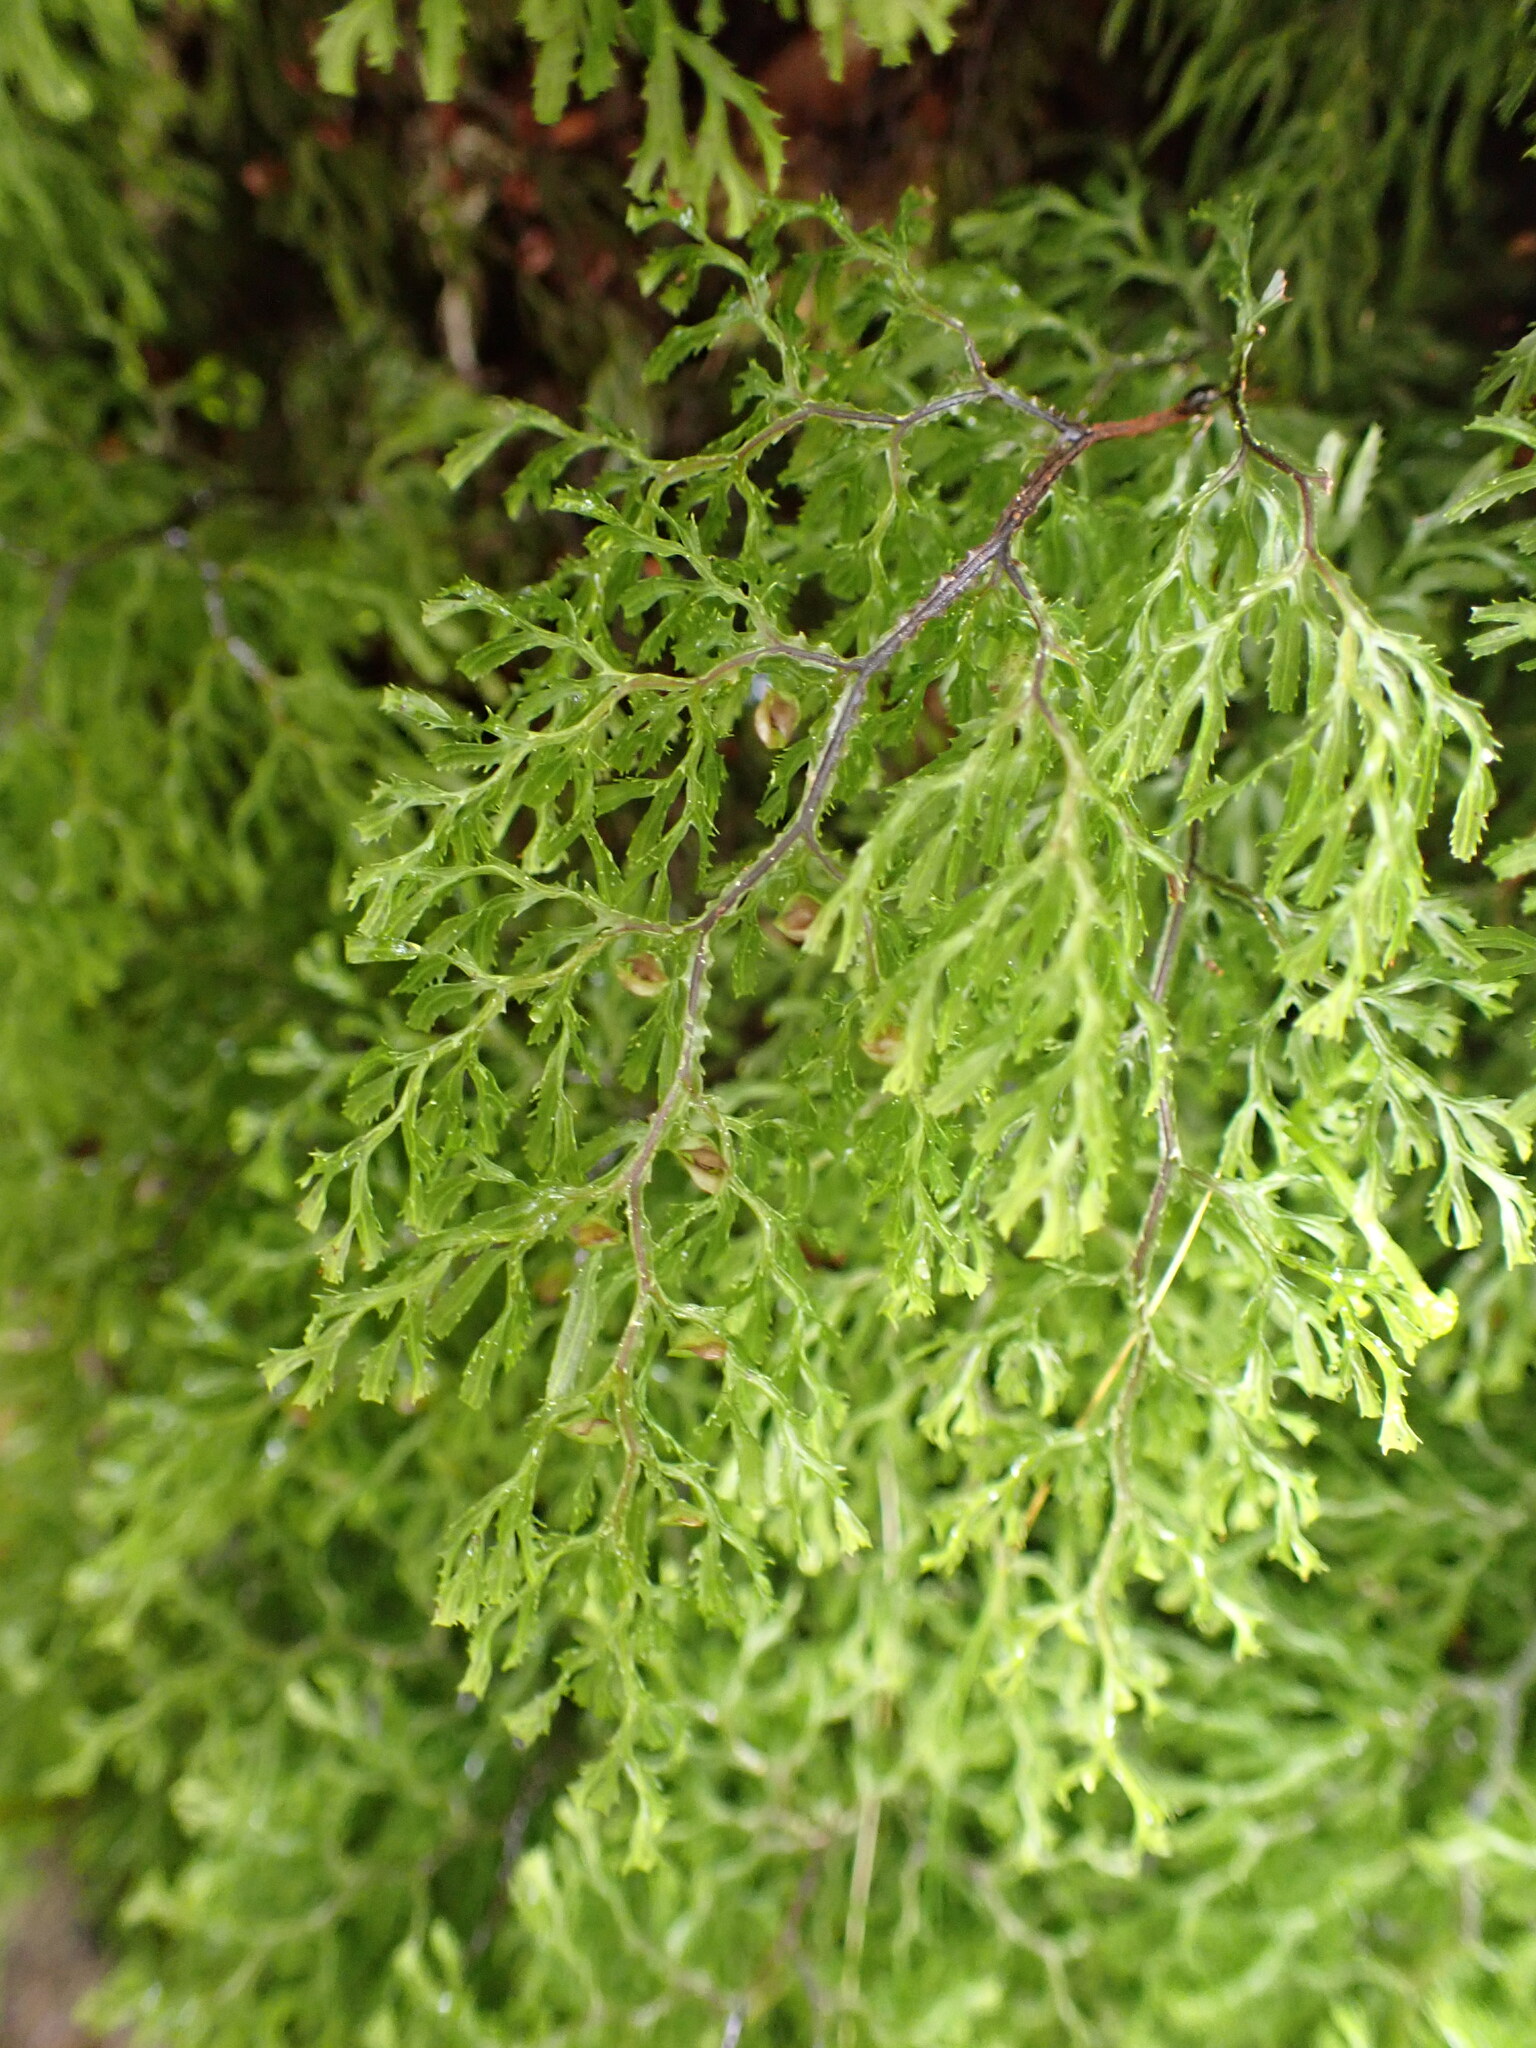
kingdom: Plantae
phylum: Tracheophyta
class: Polypodiopsida
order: Hymenophyllales
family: Hymenophyllaceae
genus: Hymenophyllum
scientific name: Hymenophyllum multifidum
